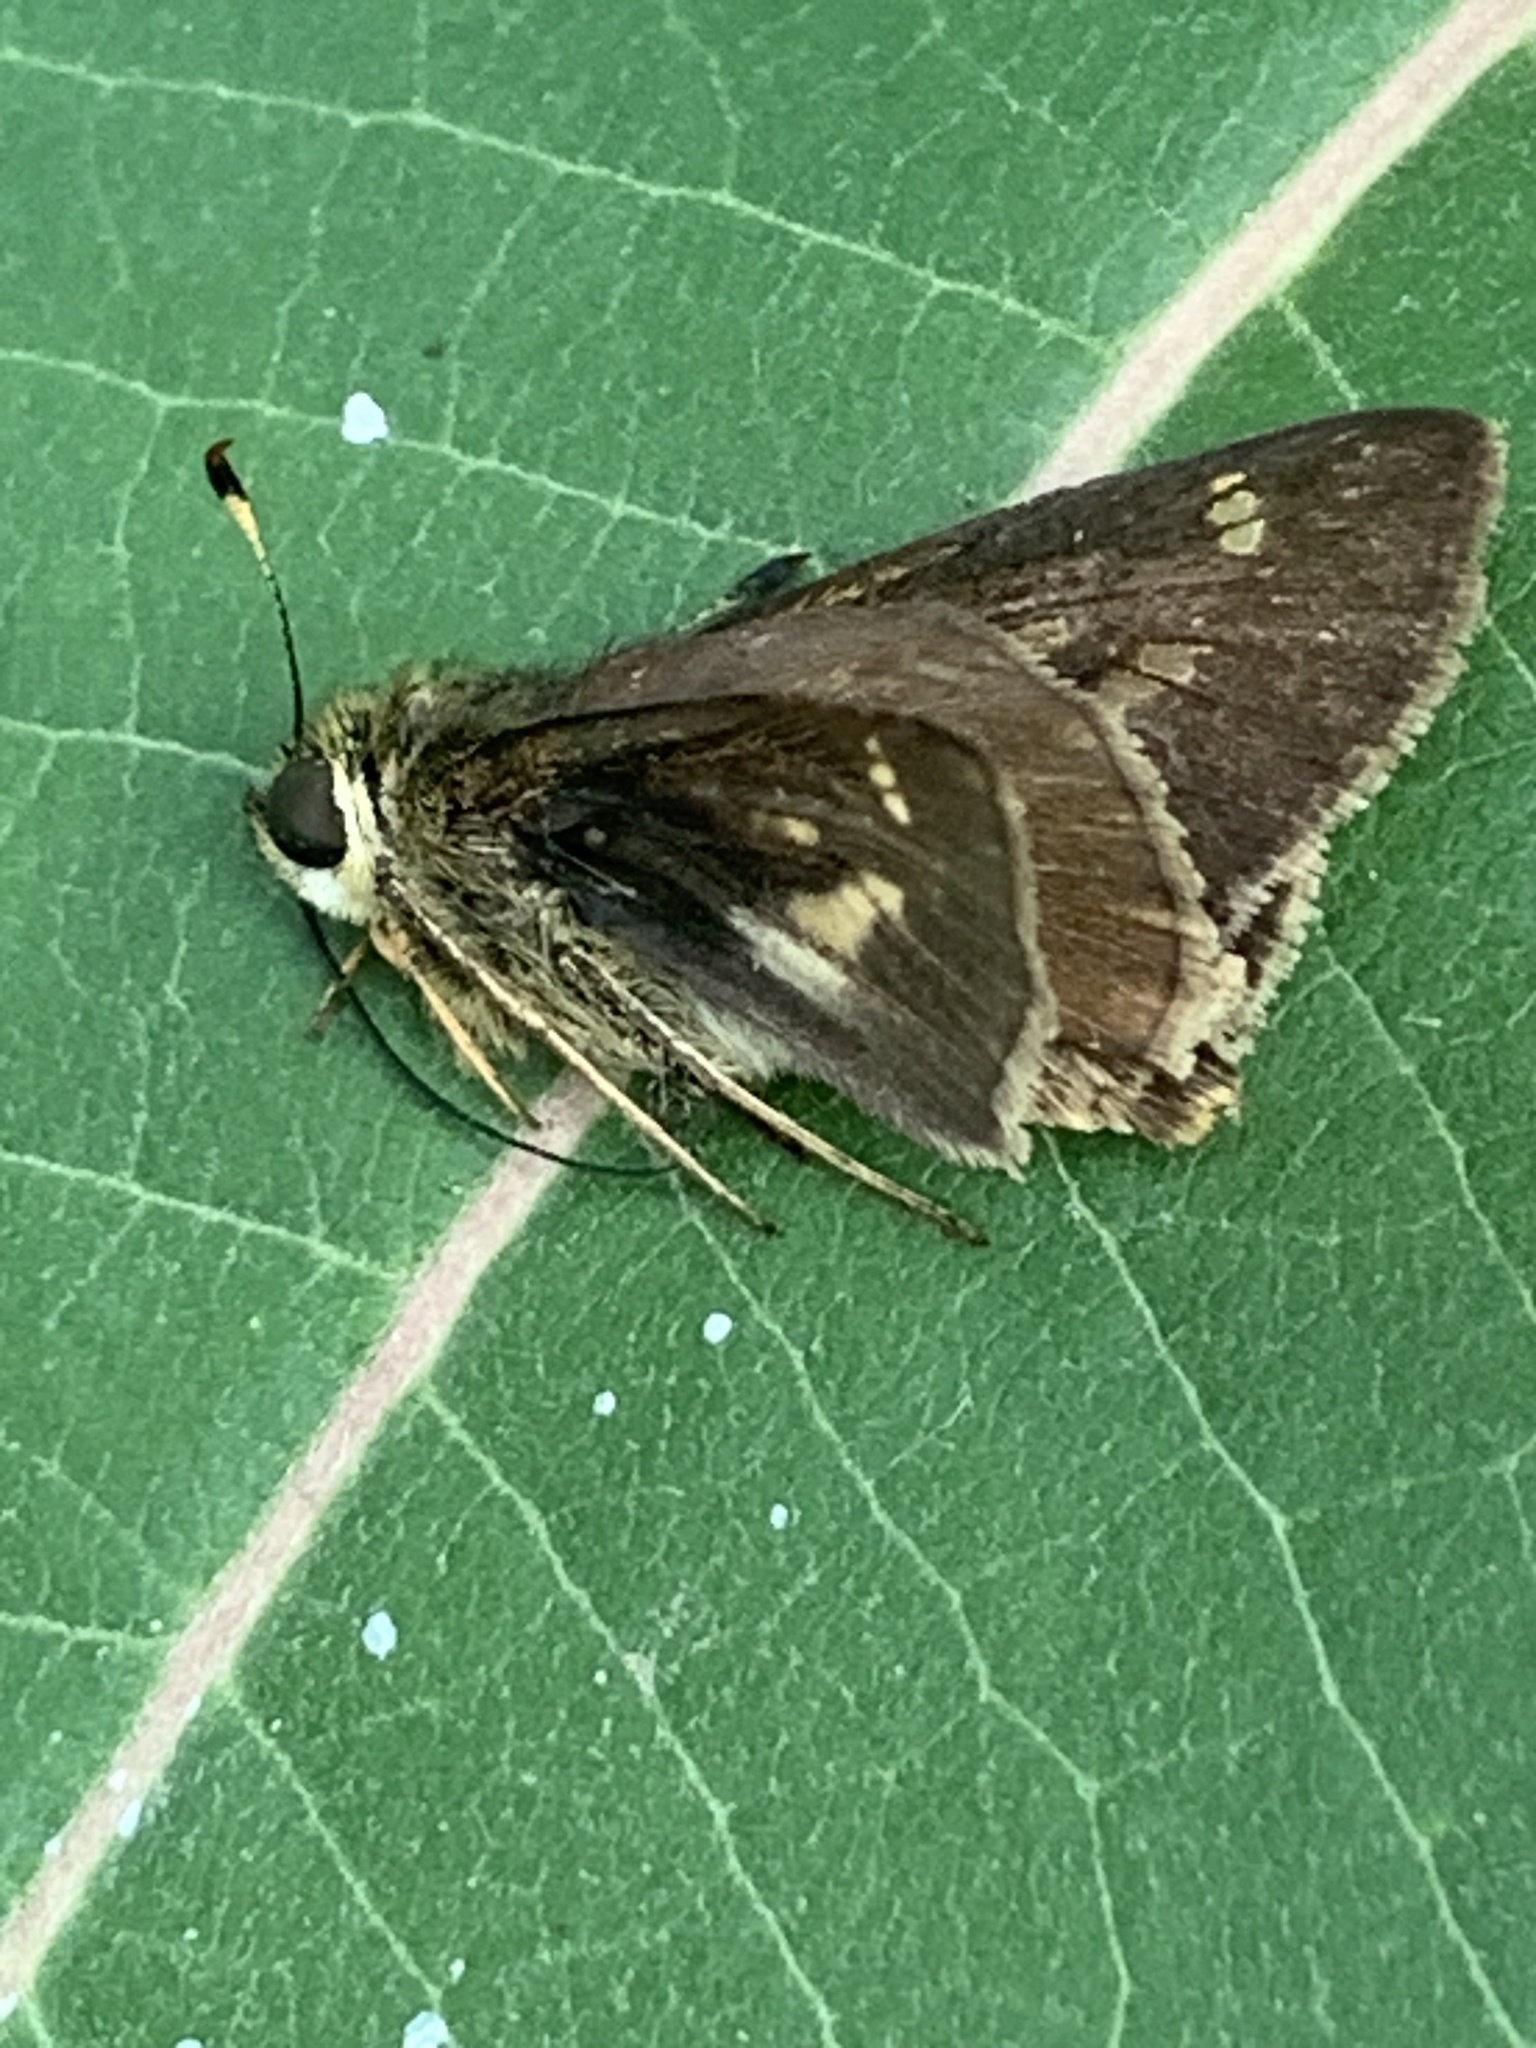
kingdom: Animalia
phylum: Arthropoda
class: Insecta
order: Lepidoptera
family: Hesperiidae
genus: Vernia
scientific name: Vernia verna
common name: Little glassywing
